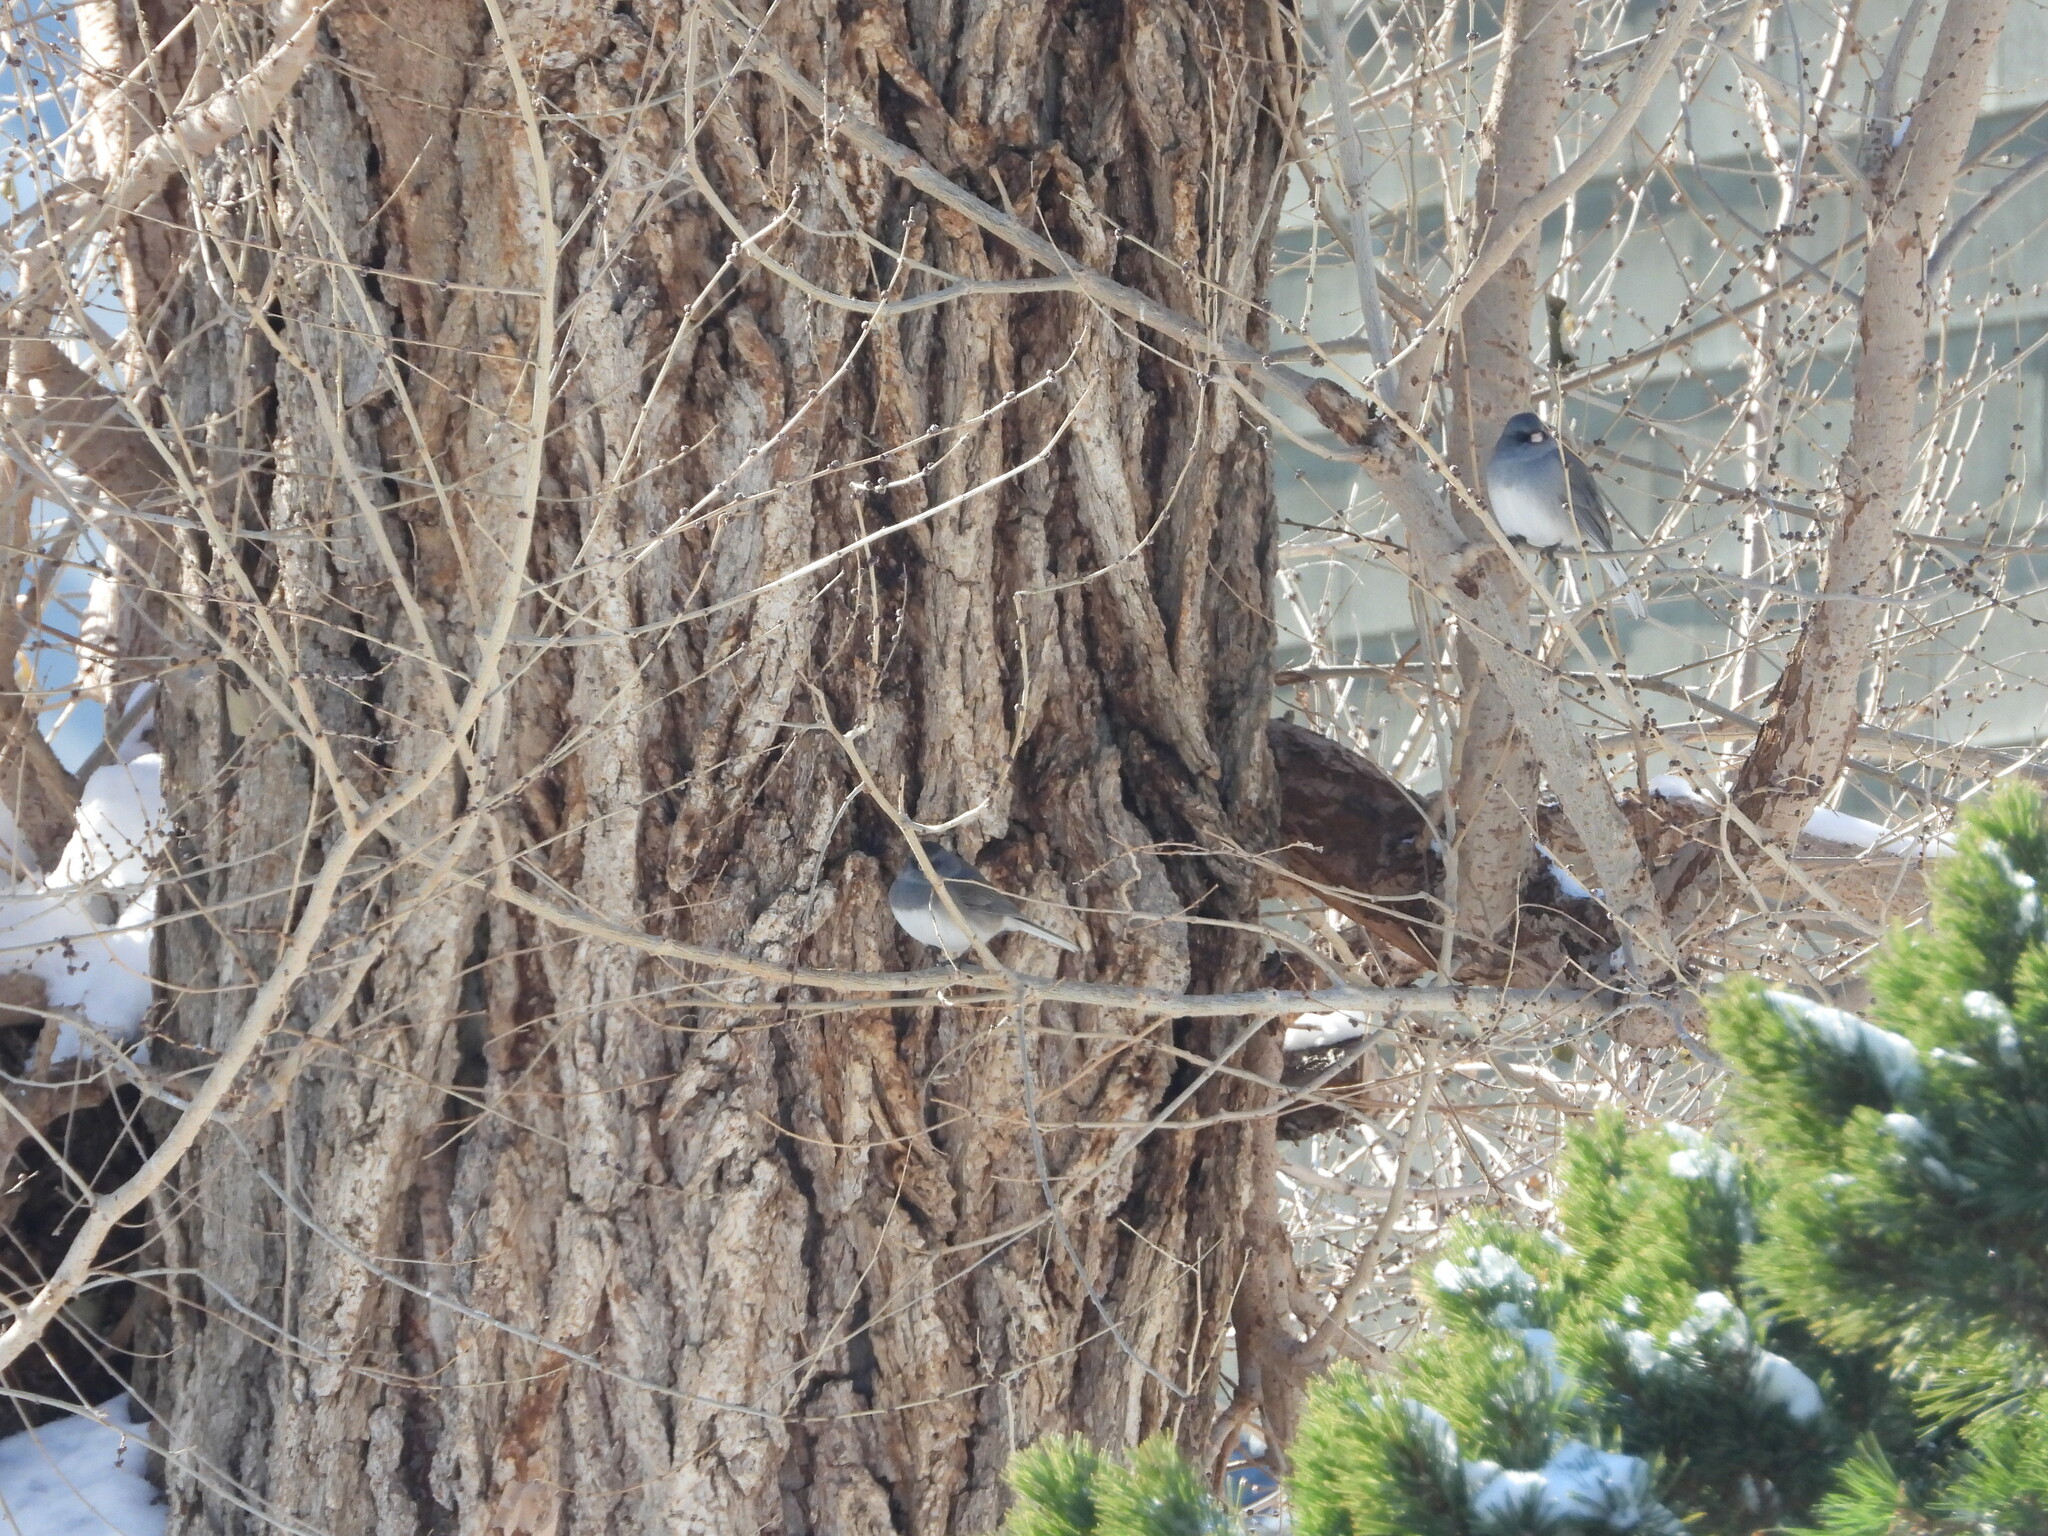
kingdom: Animalia
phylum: Chordata
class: Aves
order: Passeriformes
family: Passerellidae
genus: Junco
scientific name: Junco hyemalis
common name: Dark-eyed junco
